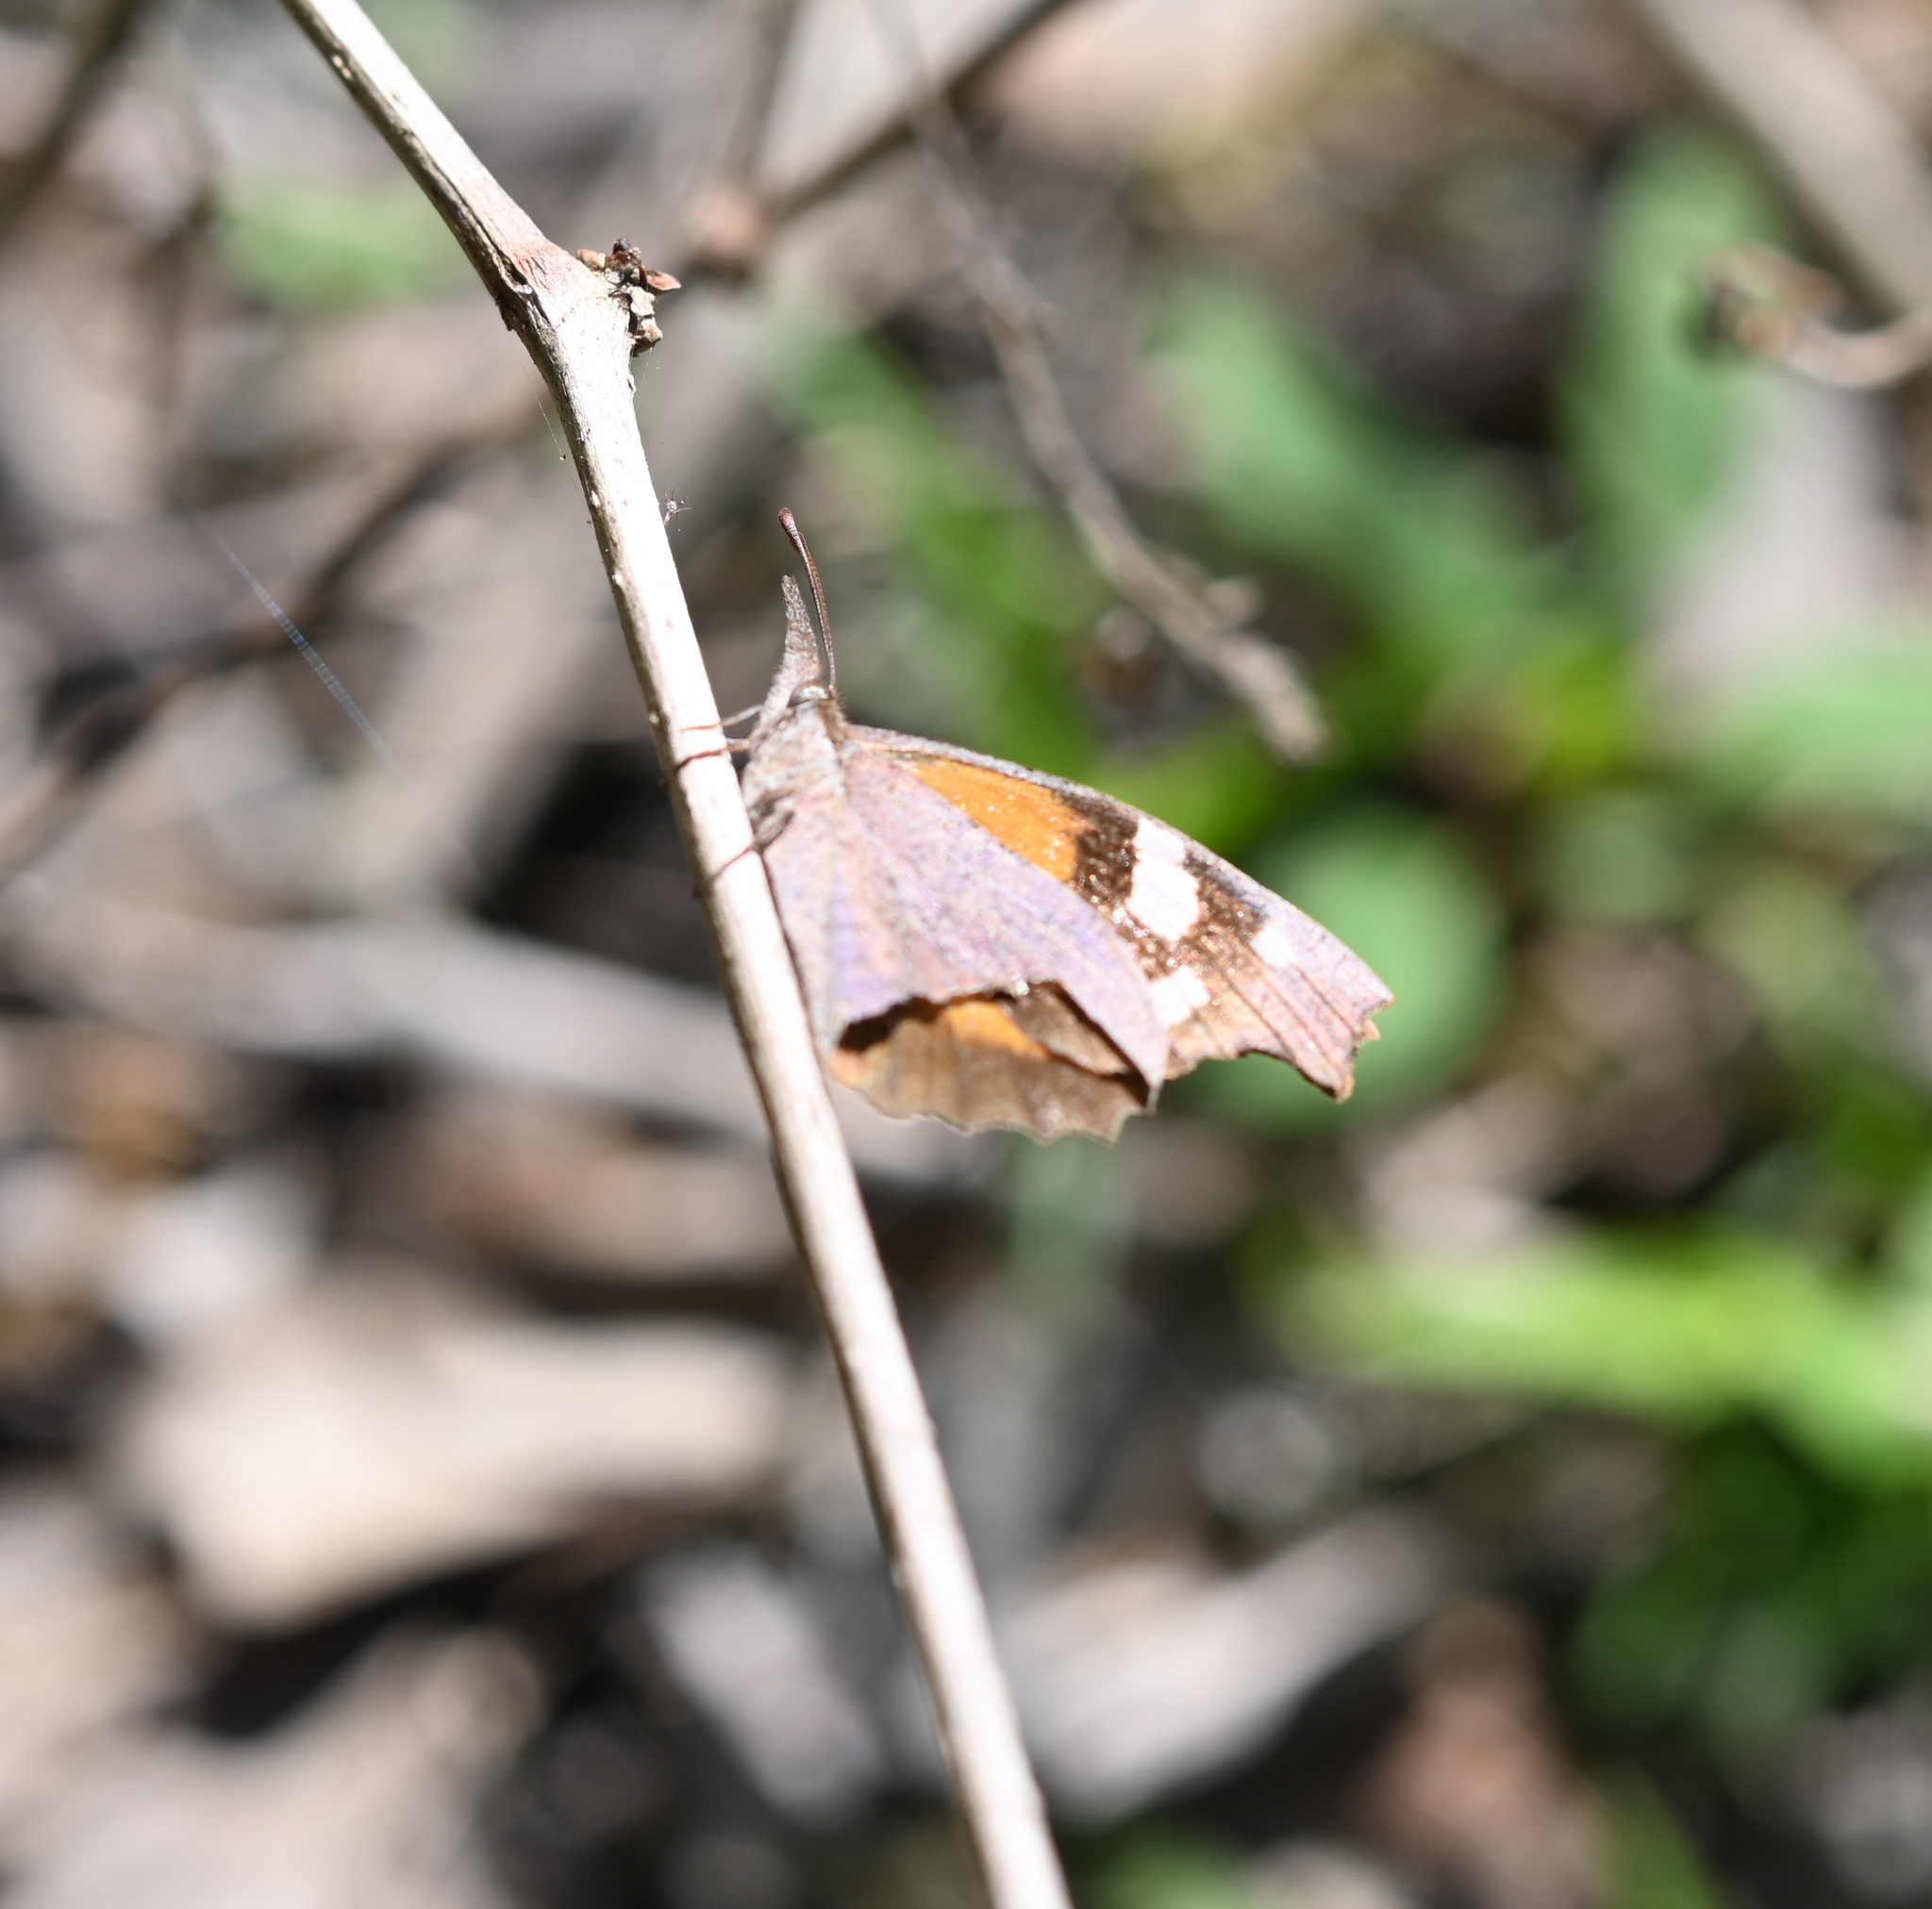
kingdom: Animalia
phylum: Arthropoda
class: Insecta
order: Lepidoptera
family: Nymphalidae
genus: Libytheana
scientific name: Libytheana carinenta
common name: American snout
